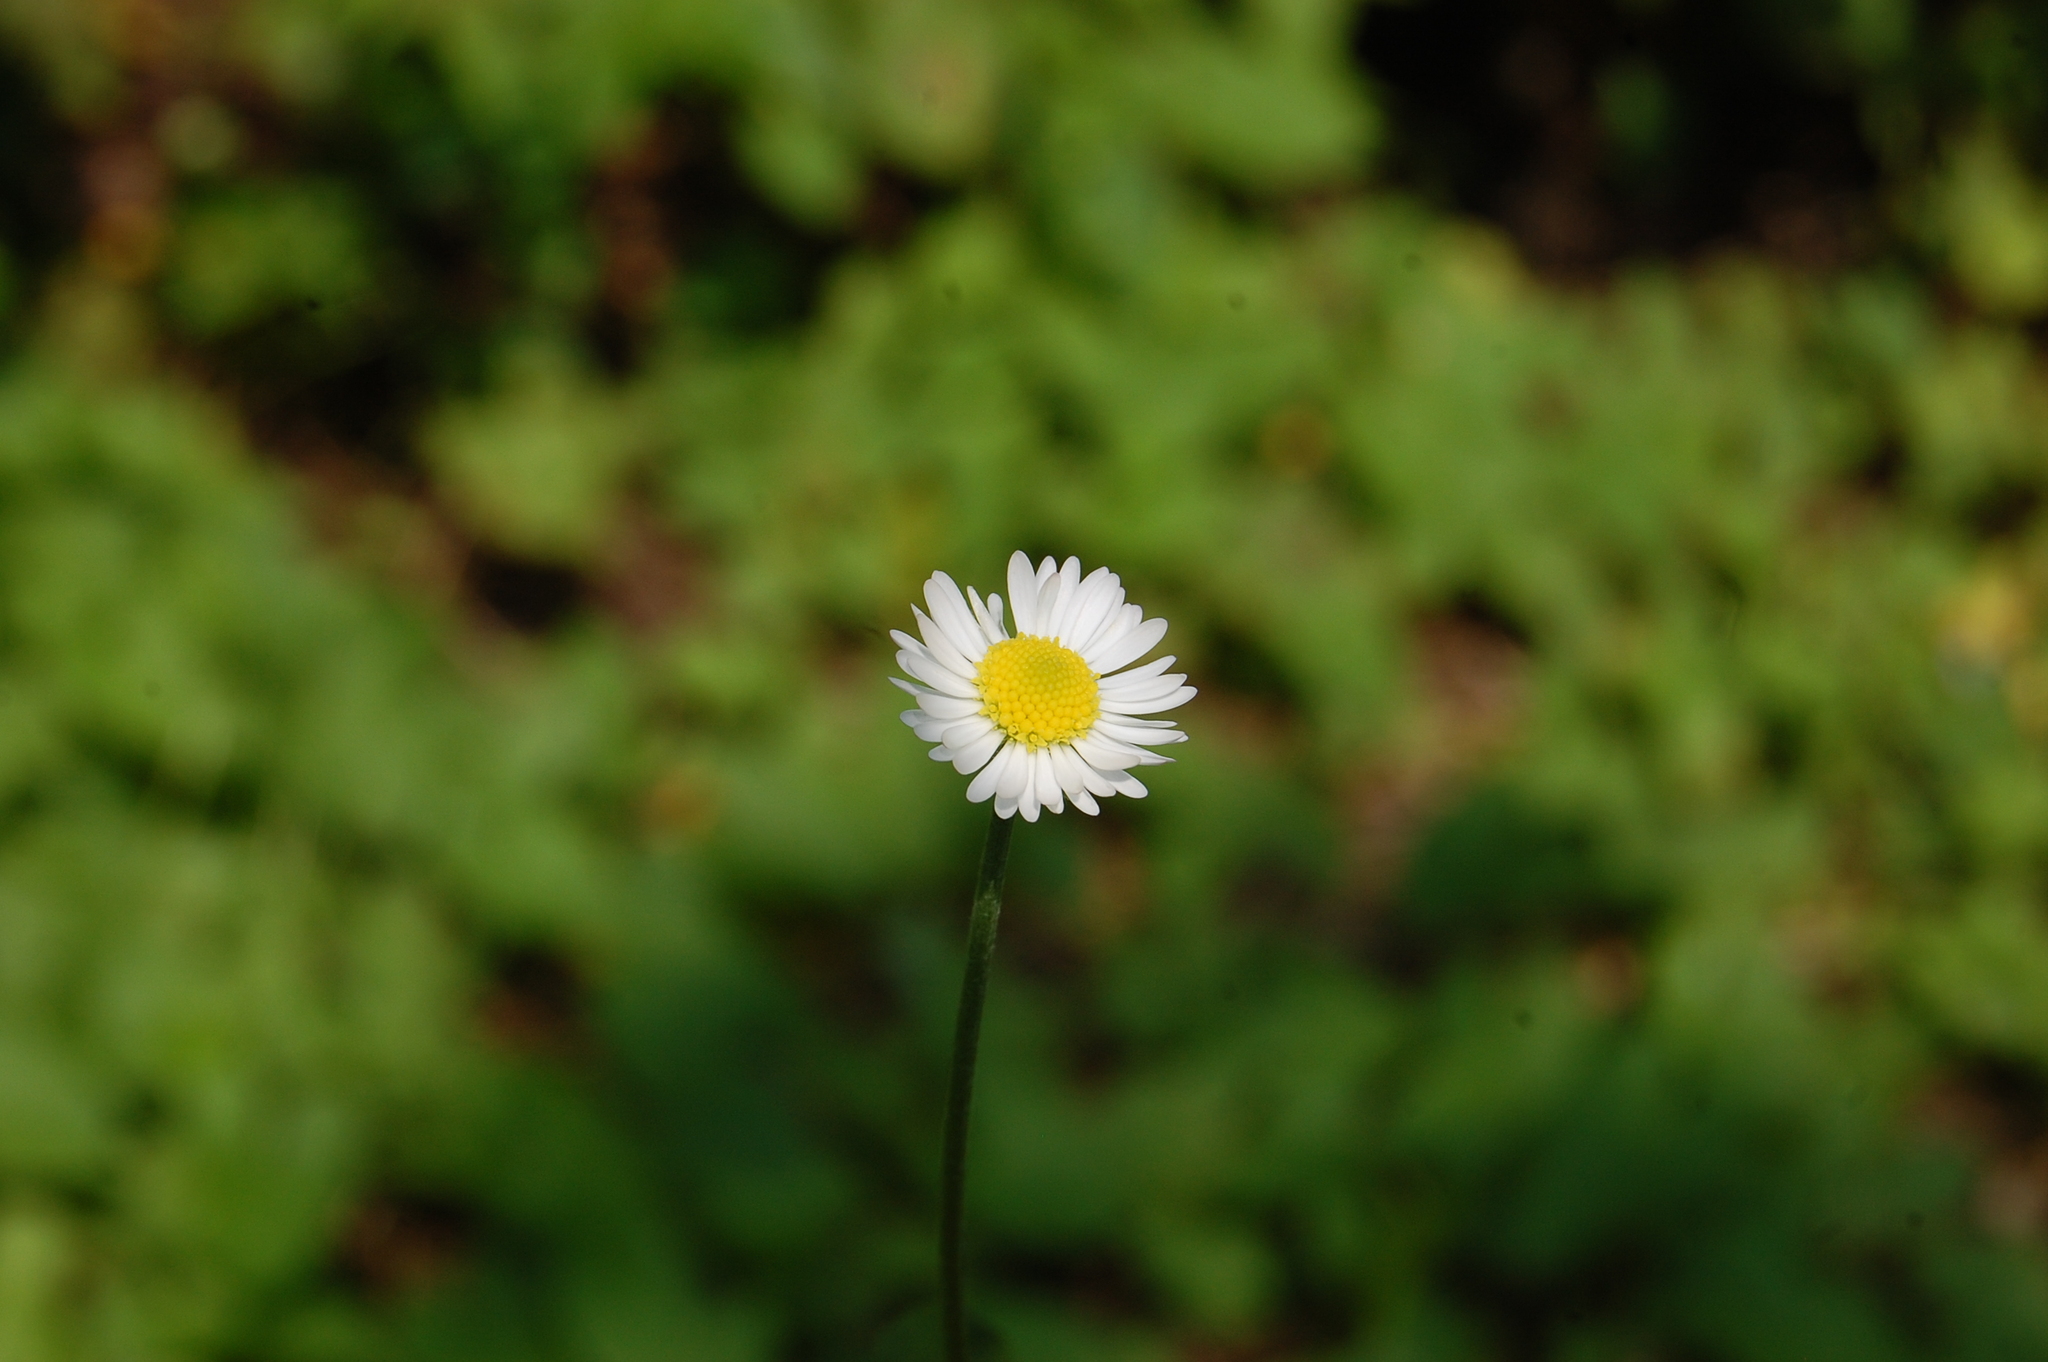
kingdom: Plantae
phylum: Tracheophyta
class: Magnoliopsida
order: Asterales
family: Asteraceae
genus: Bellis
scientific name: Bellis perennis
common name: Lawndaisy
